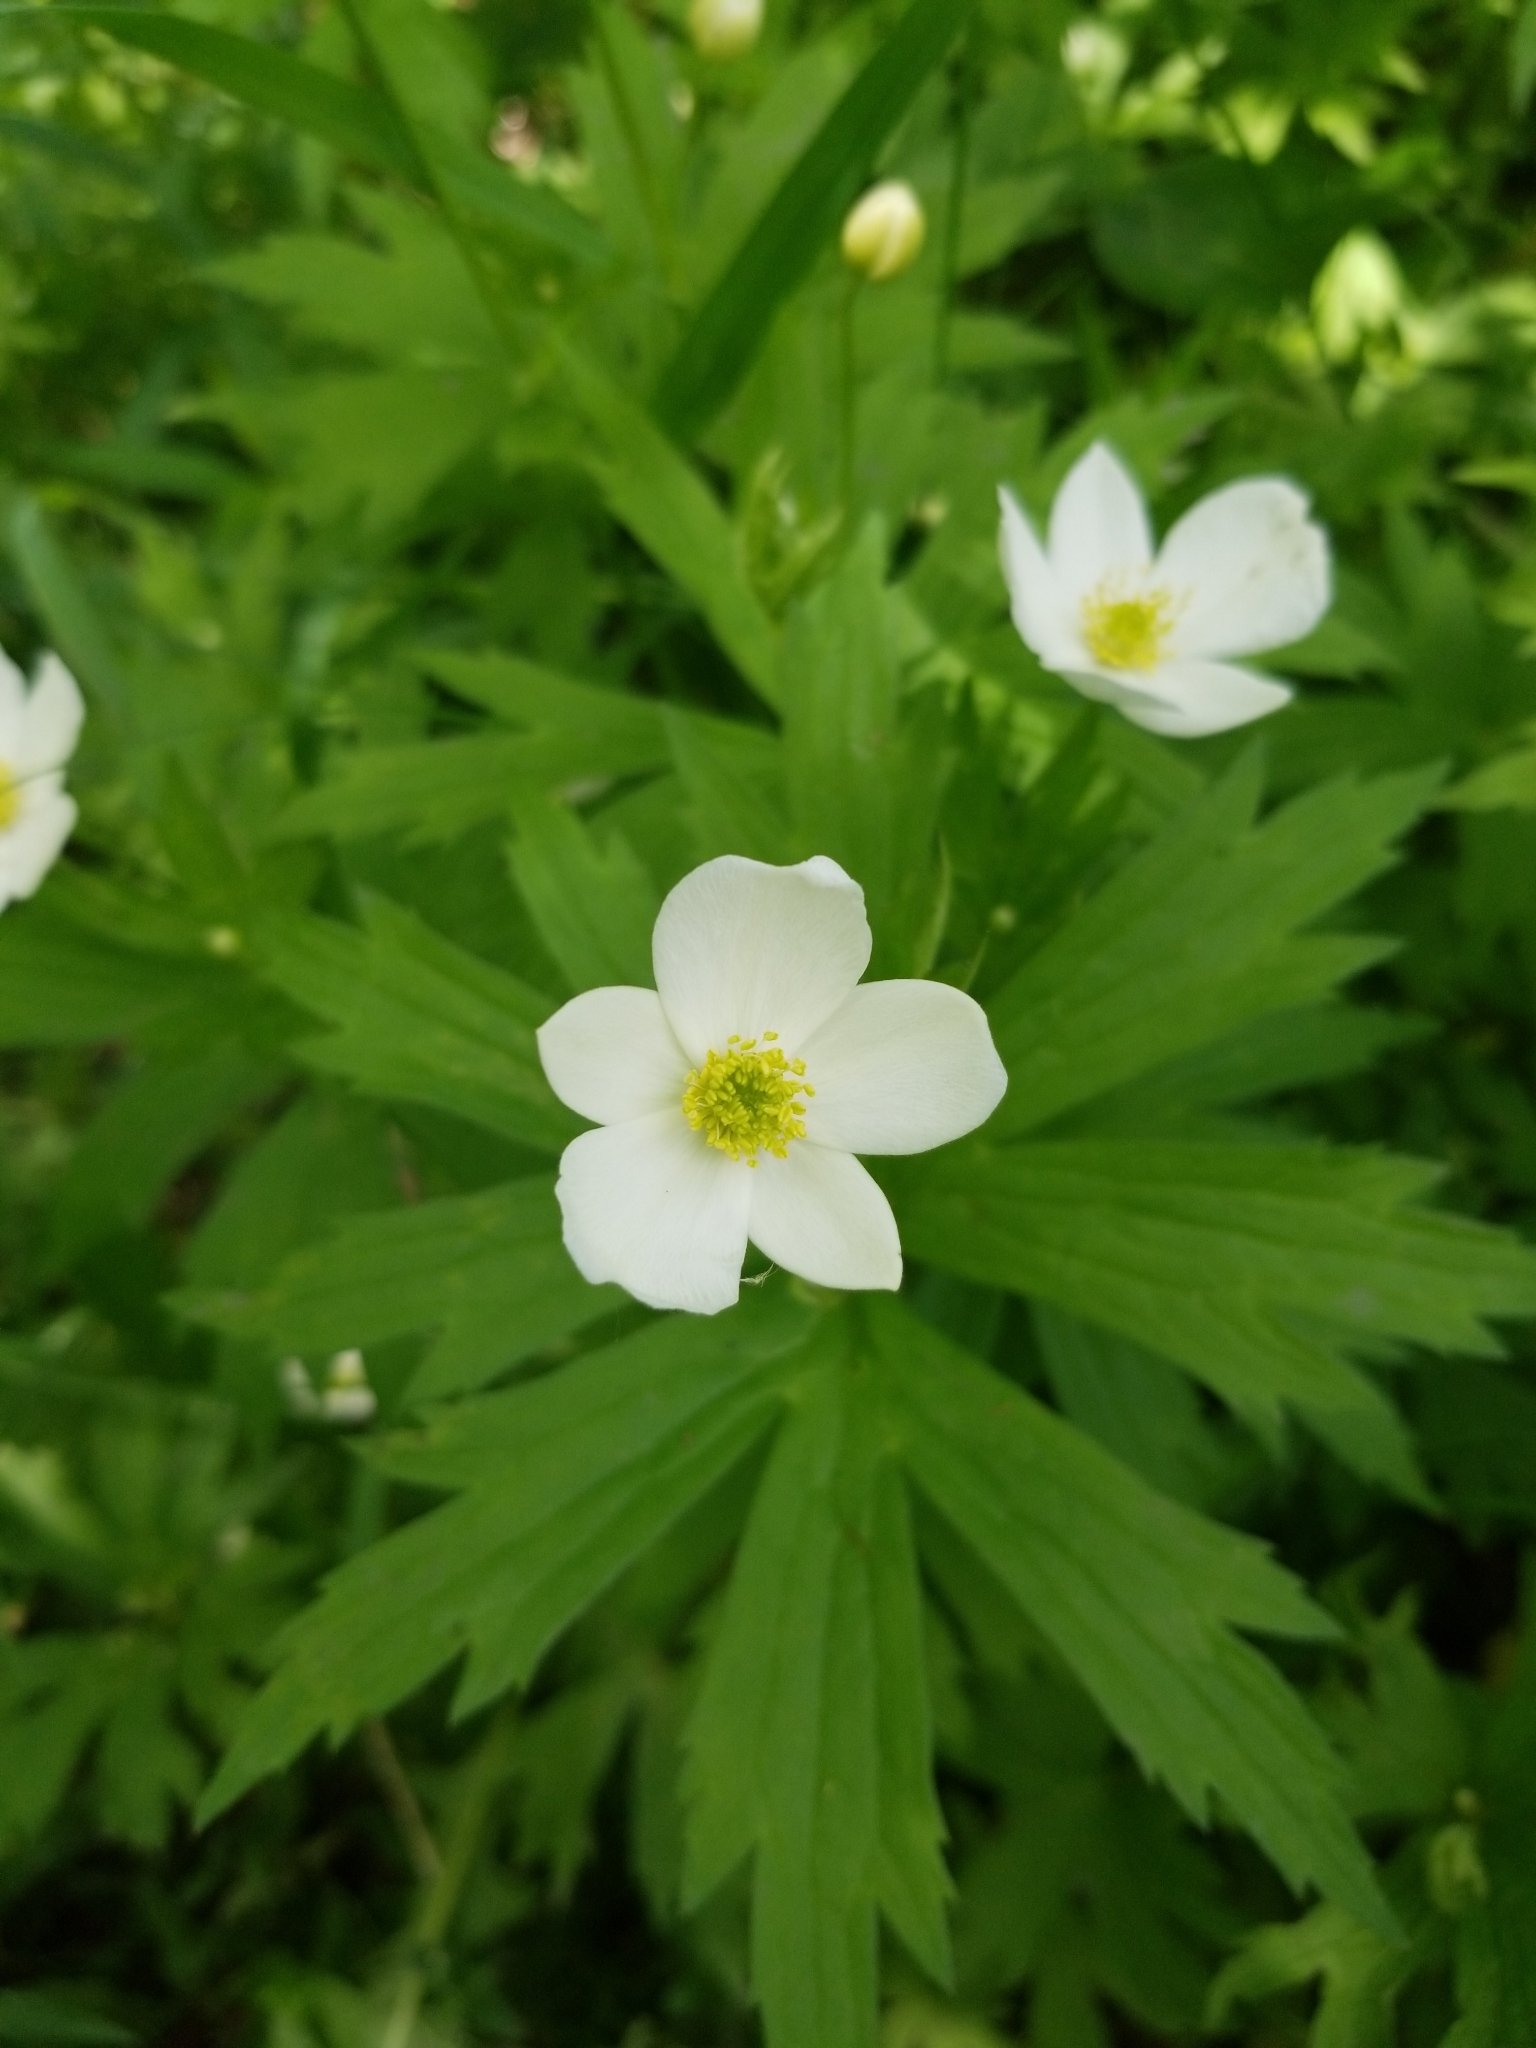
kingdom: Plantae
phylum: Tracheophyta
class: Magnoliopsida
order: Ranunculales
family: Ranunculaceae
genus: Anemonastrum
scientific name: Anemonastrum canadense
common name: Canada anemone
